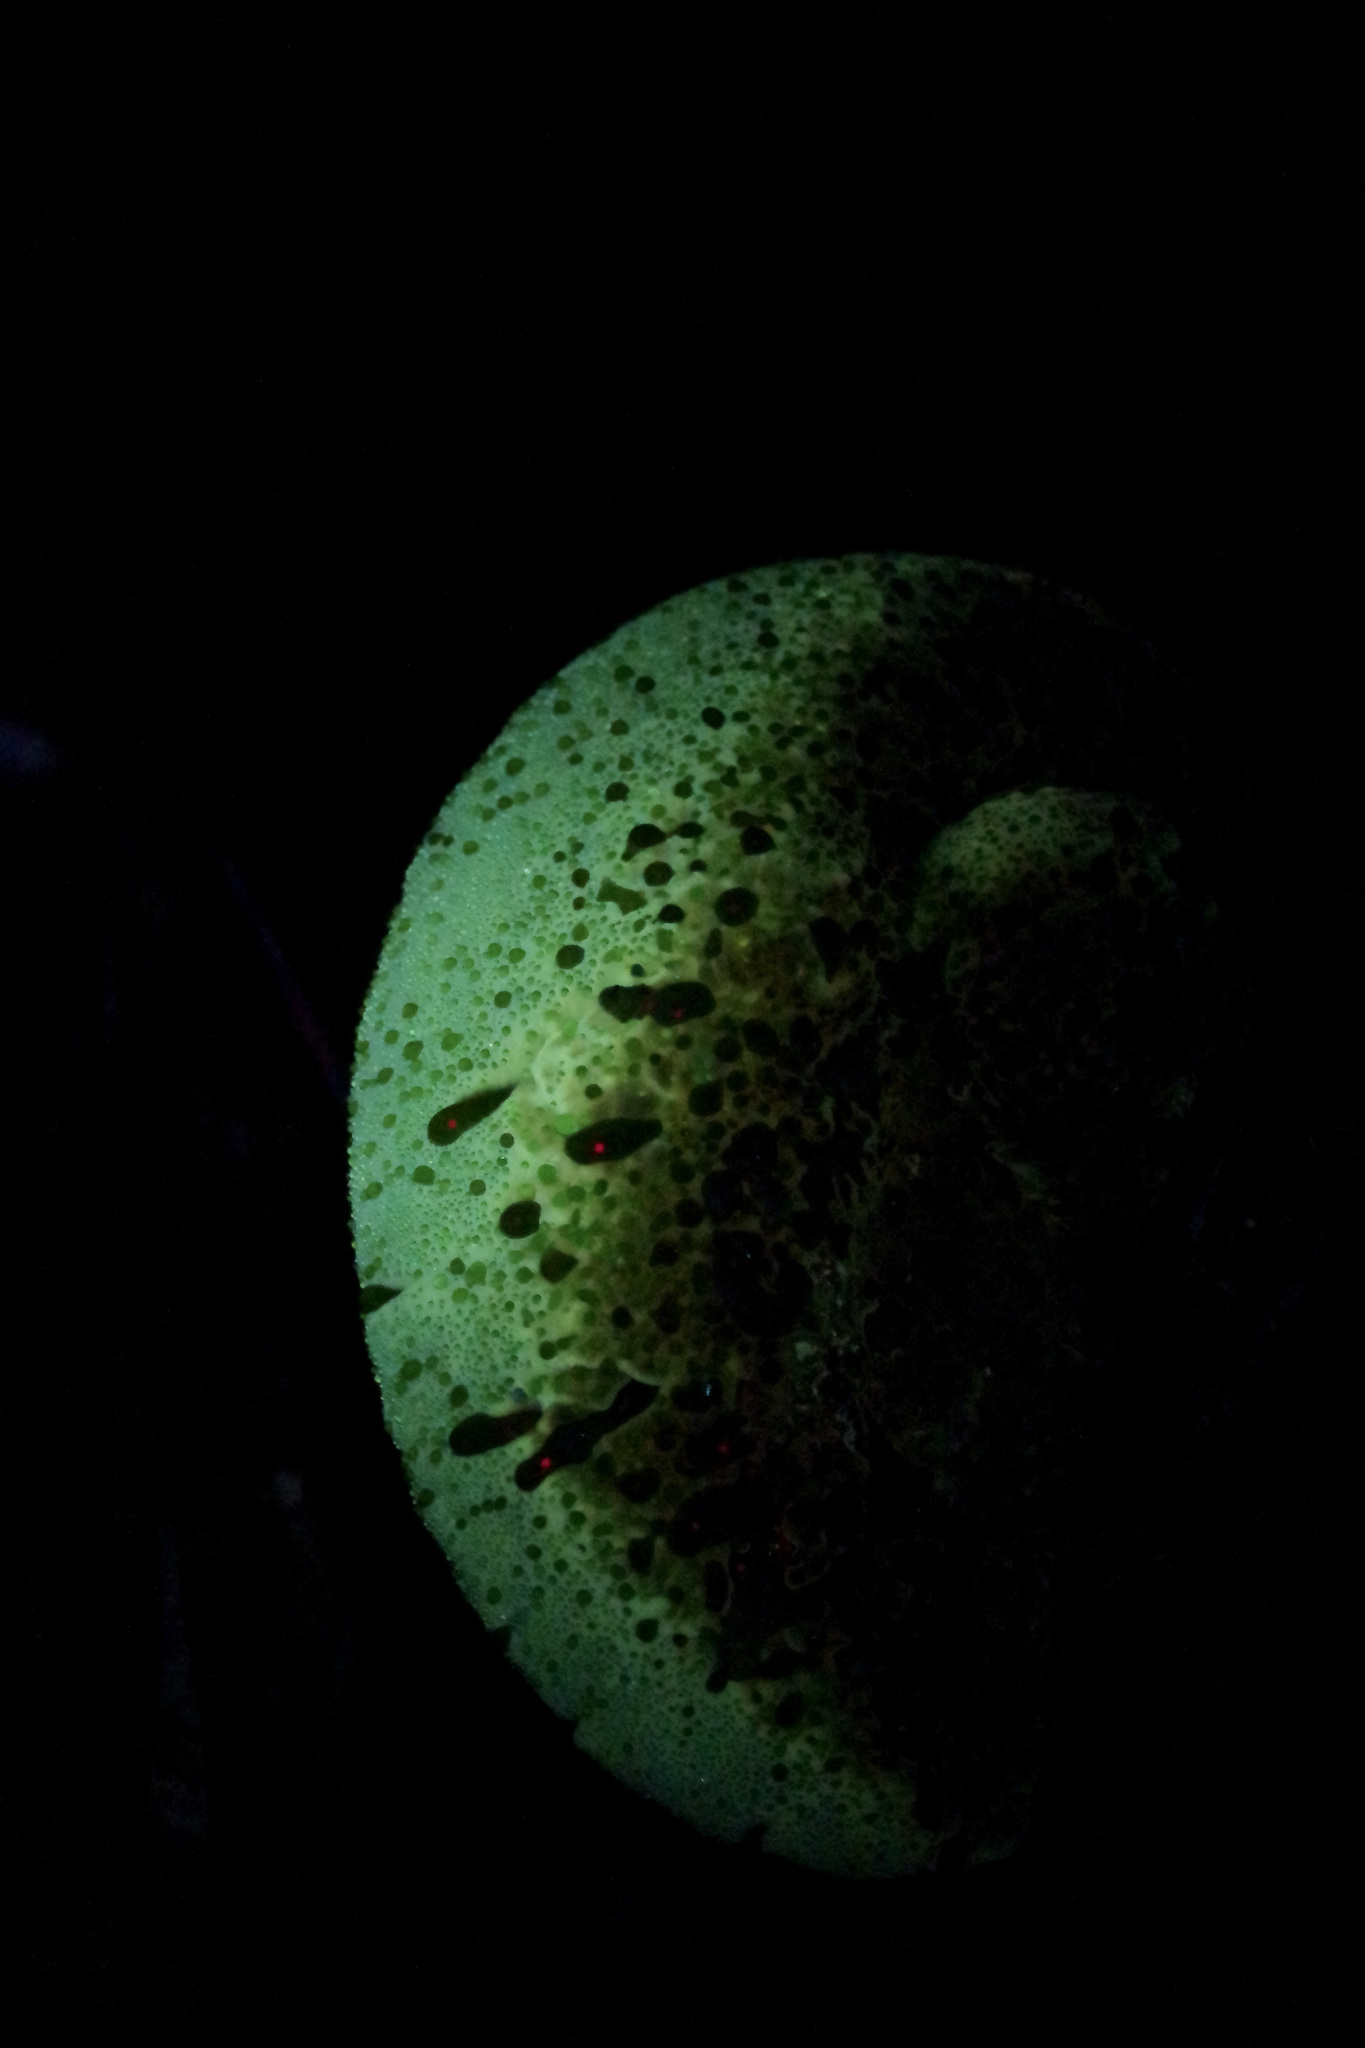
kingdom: Fungi
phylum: Basidiomycota
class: Agaricomycetes
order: Hymenochaetales
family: Hymenochaetaceae
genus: Pseudoinonotus
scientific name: Pseudoinonotus dryadeus
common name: Oak bracket
